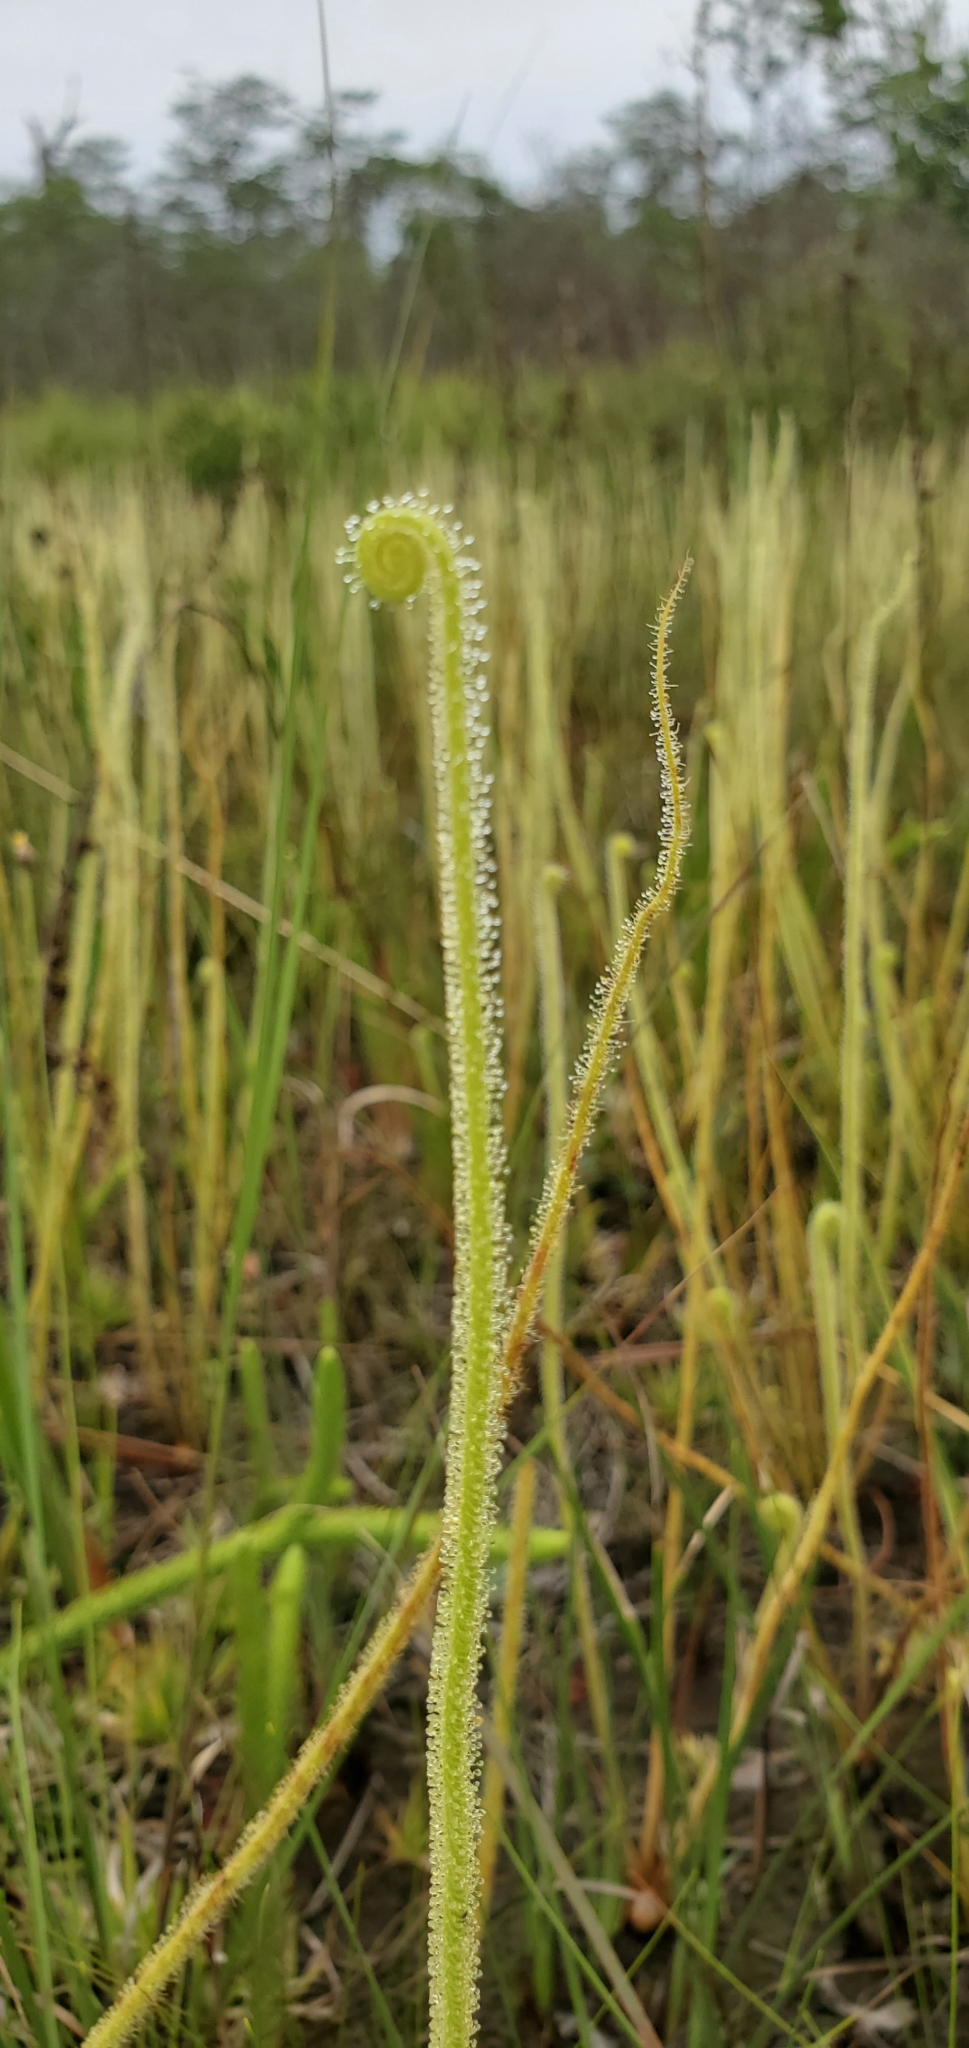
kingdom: Plantae
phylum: Tracheophyta
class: Magnoliopsida
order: Caryophyllales
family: Droseraceae
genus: Drosera
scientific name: Drosera filiformis
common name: Dew-thread
